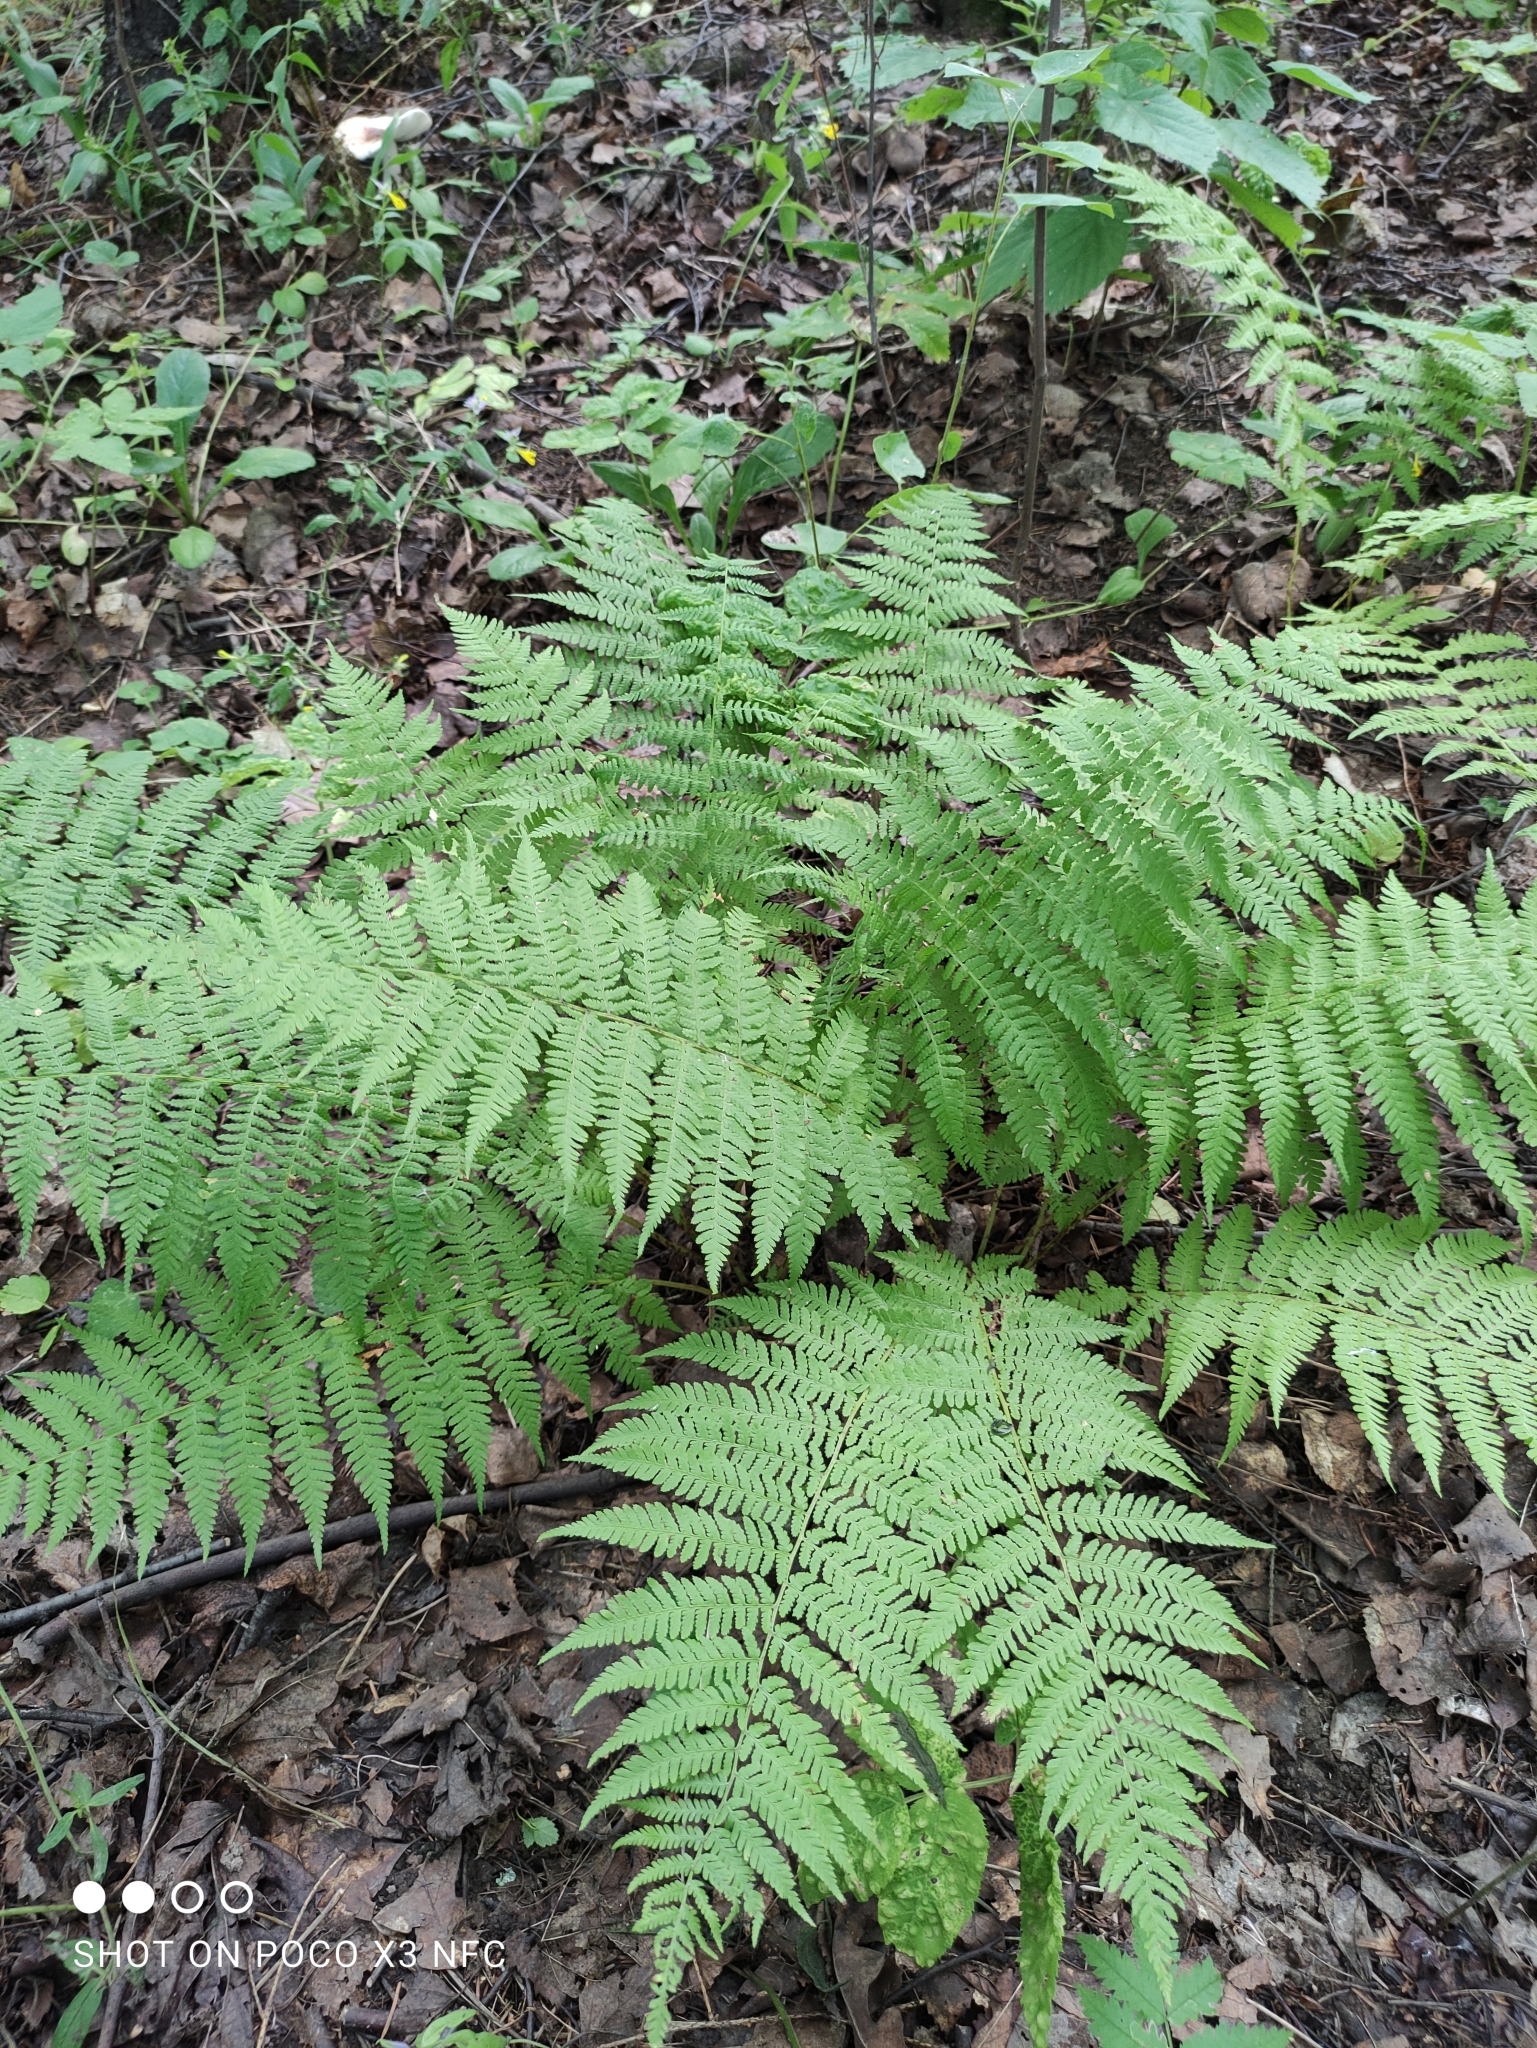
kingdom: Plantae
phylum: Tracheophyta
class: Polypodiopsida
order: Polypodiales
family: Athyriaceae
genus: Athyrium
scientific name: Athyrium filix-femina
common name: Lady fern
